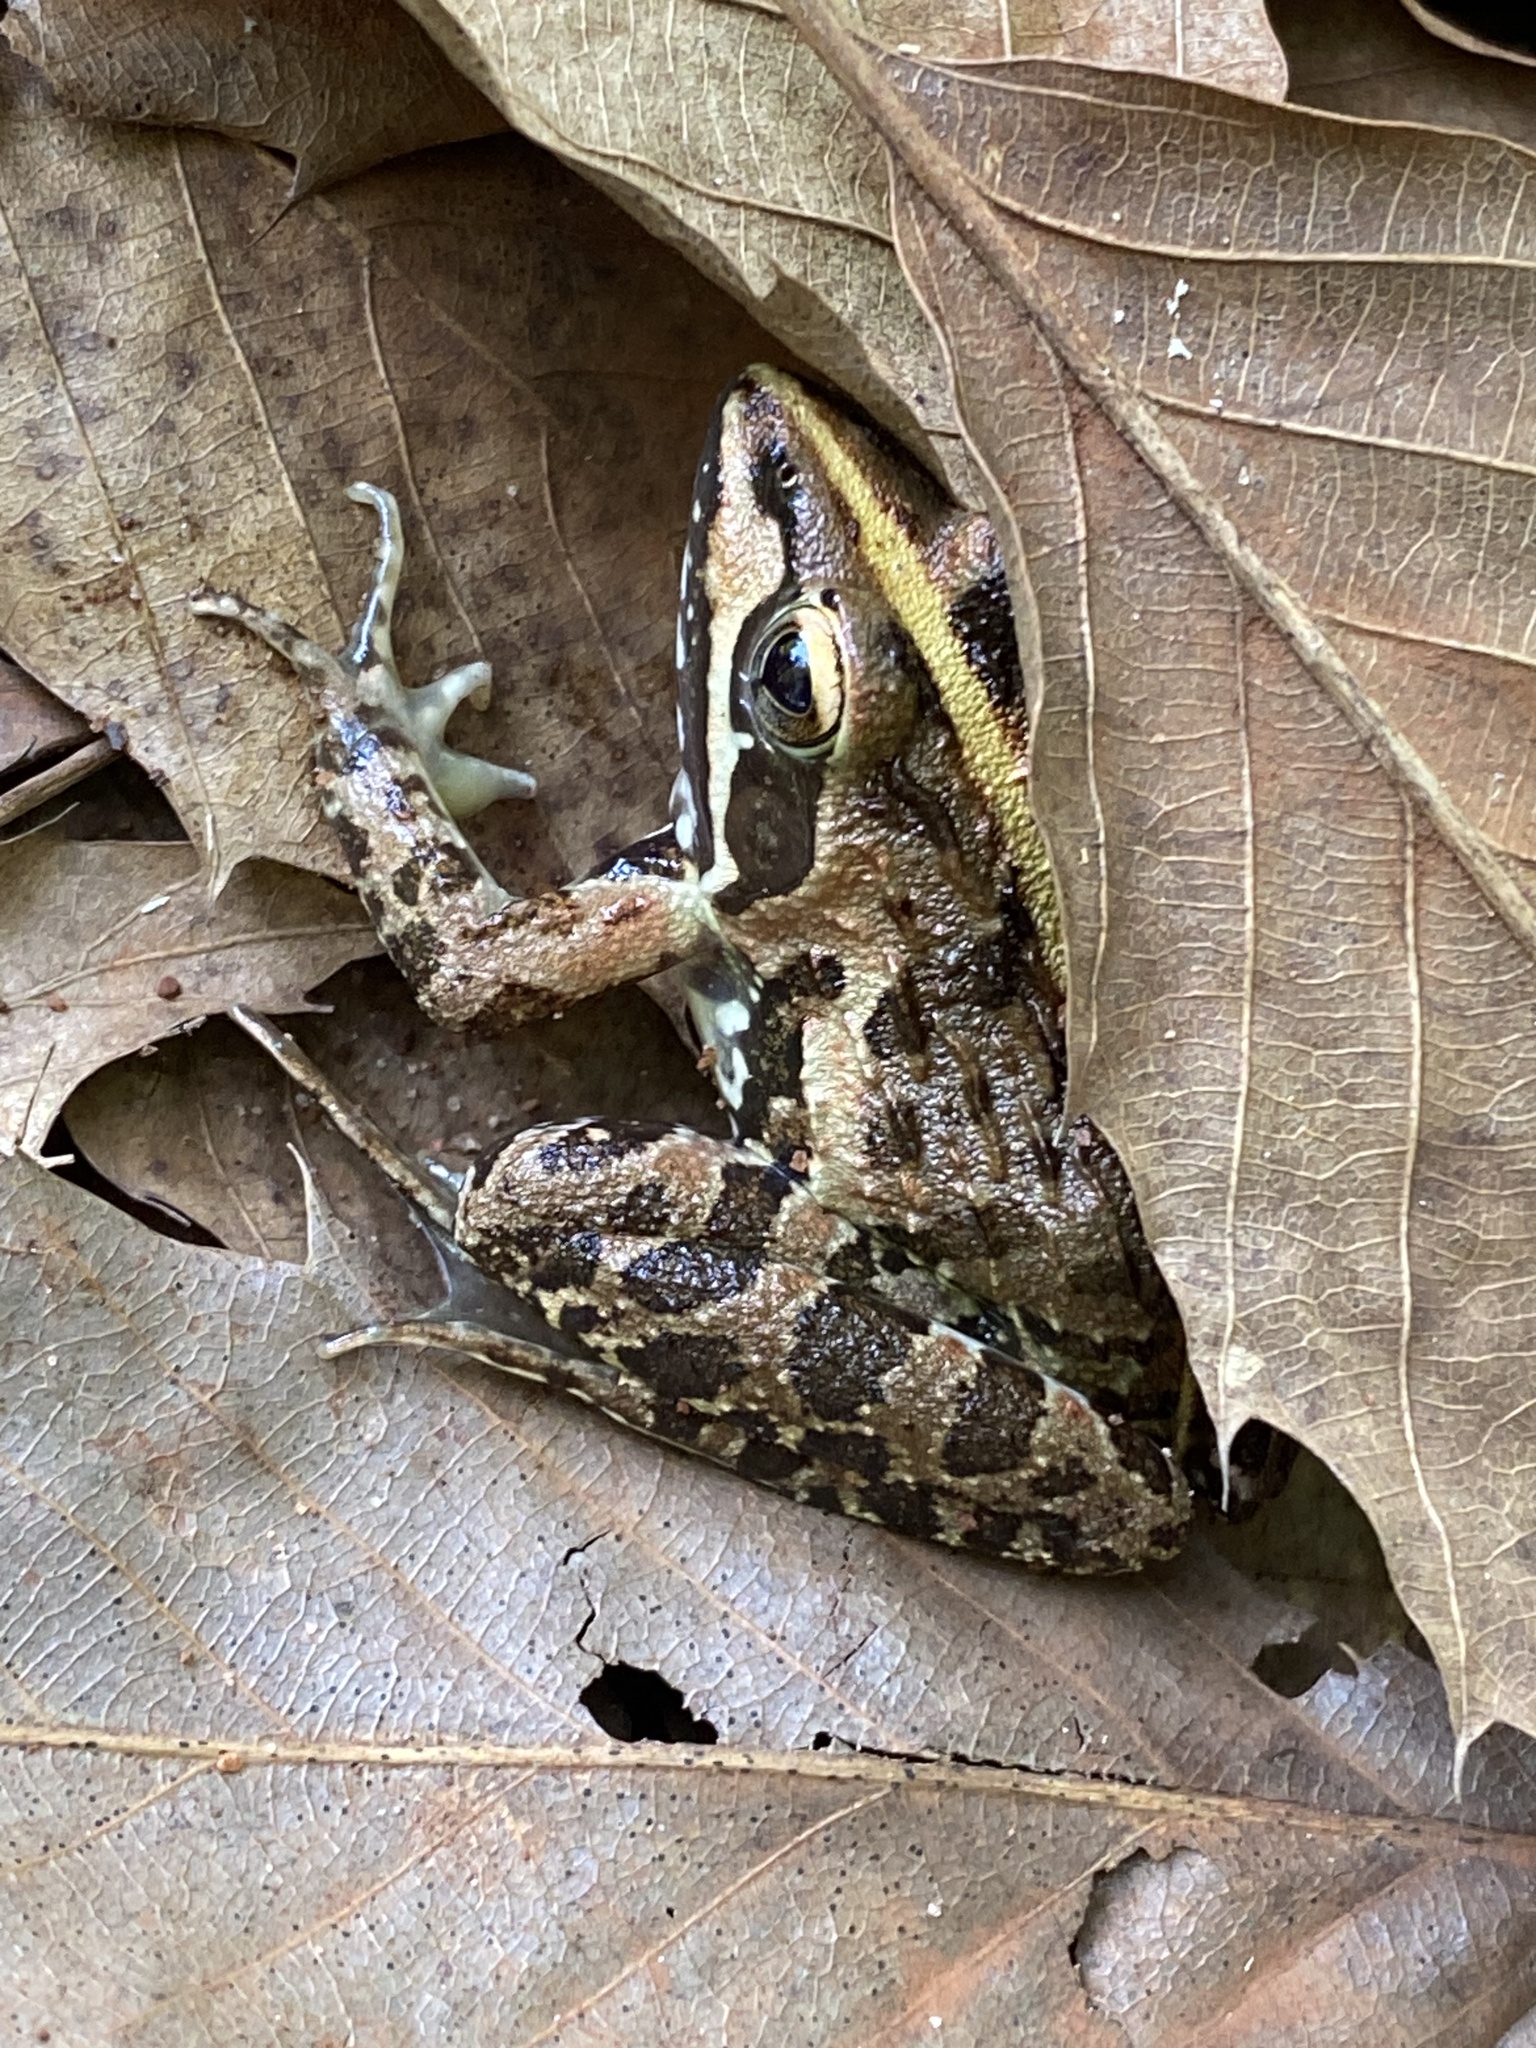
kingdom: Animalia
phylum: Chordata
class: Amphibia
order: Anura
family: Pyxicephalidae
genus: Amietia
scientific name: Amietia delalandii
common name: Delalande's river frog
